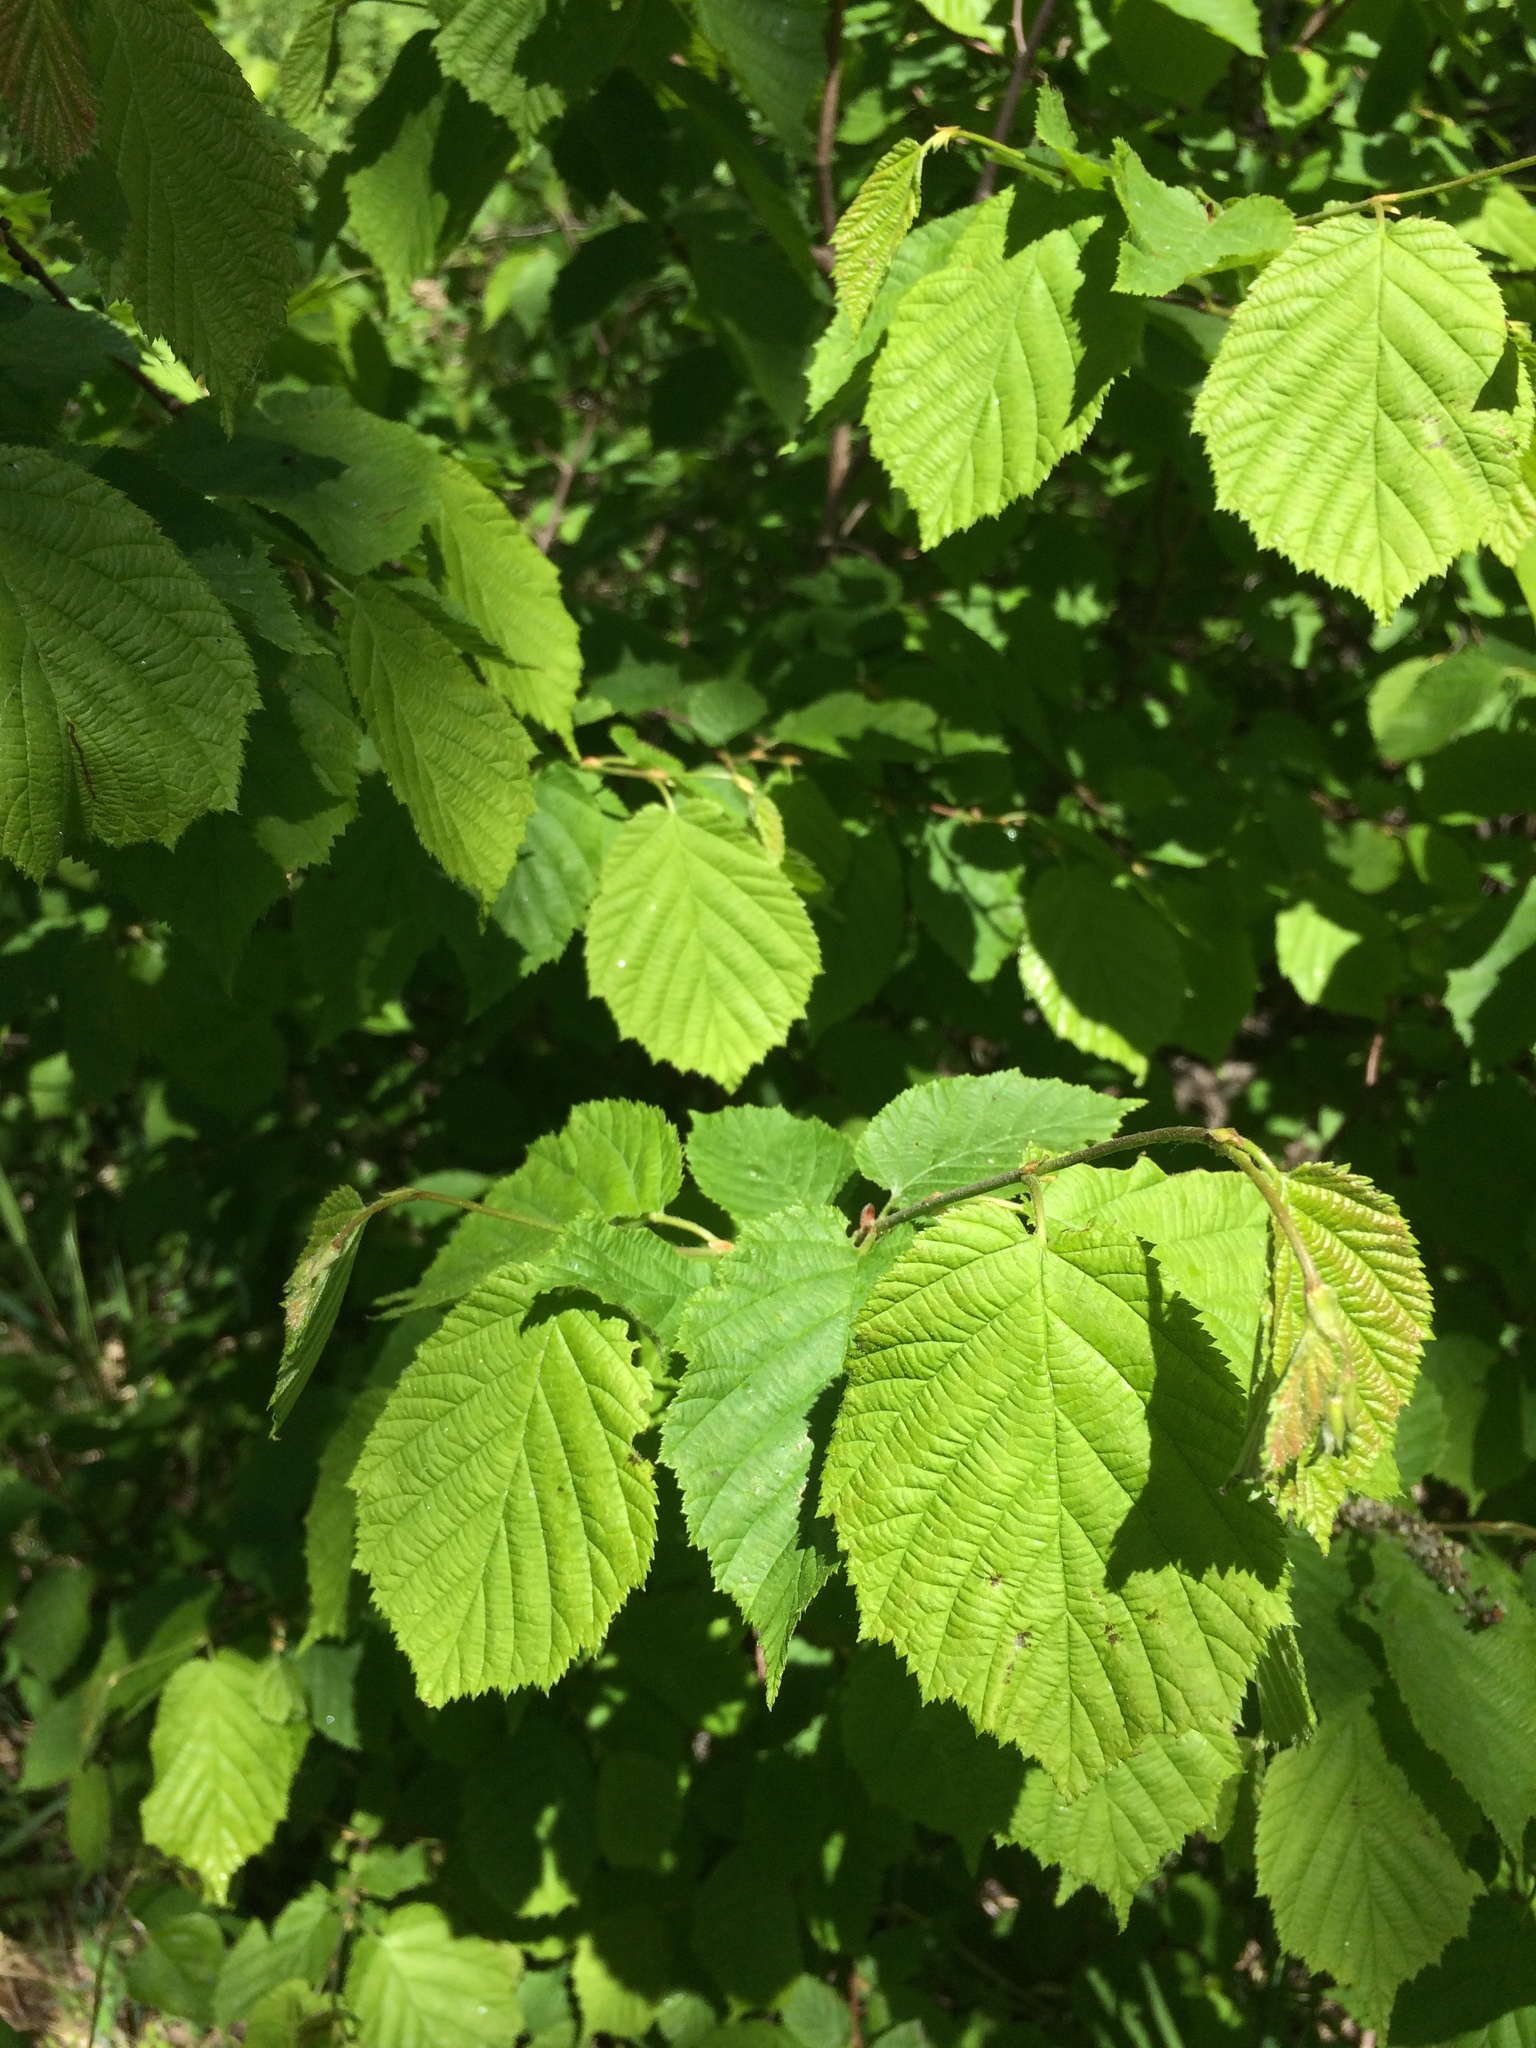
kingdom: Plantae
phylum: Tracheophyta
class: Magnoliopsida
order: Fagales
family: Betulaceae
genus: Corylus
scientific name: Corylus cornuta
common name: Beaked hazel
